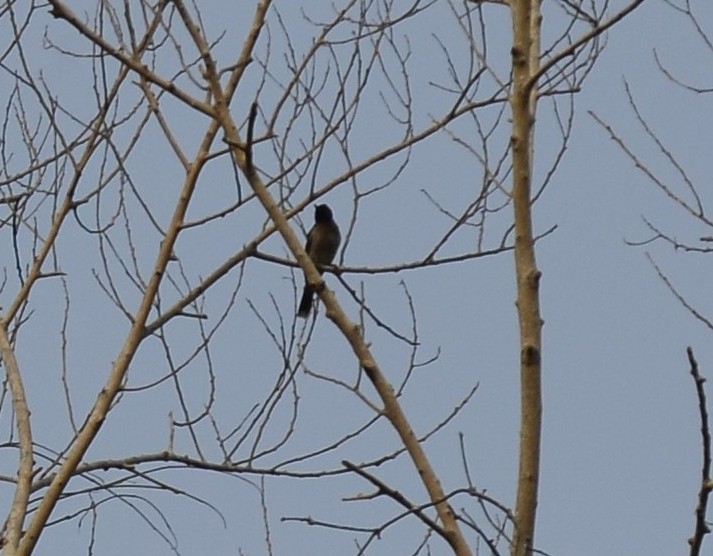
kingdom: Animalia
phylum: Chordata
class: Aves
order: Passeriformes
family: Pycnonotidae
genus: Pycnonotus
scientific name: Pycnonotus cafer
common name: Red-vented bulbul
